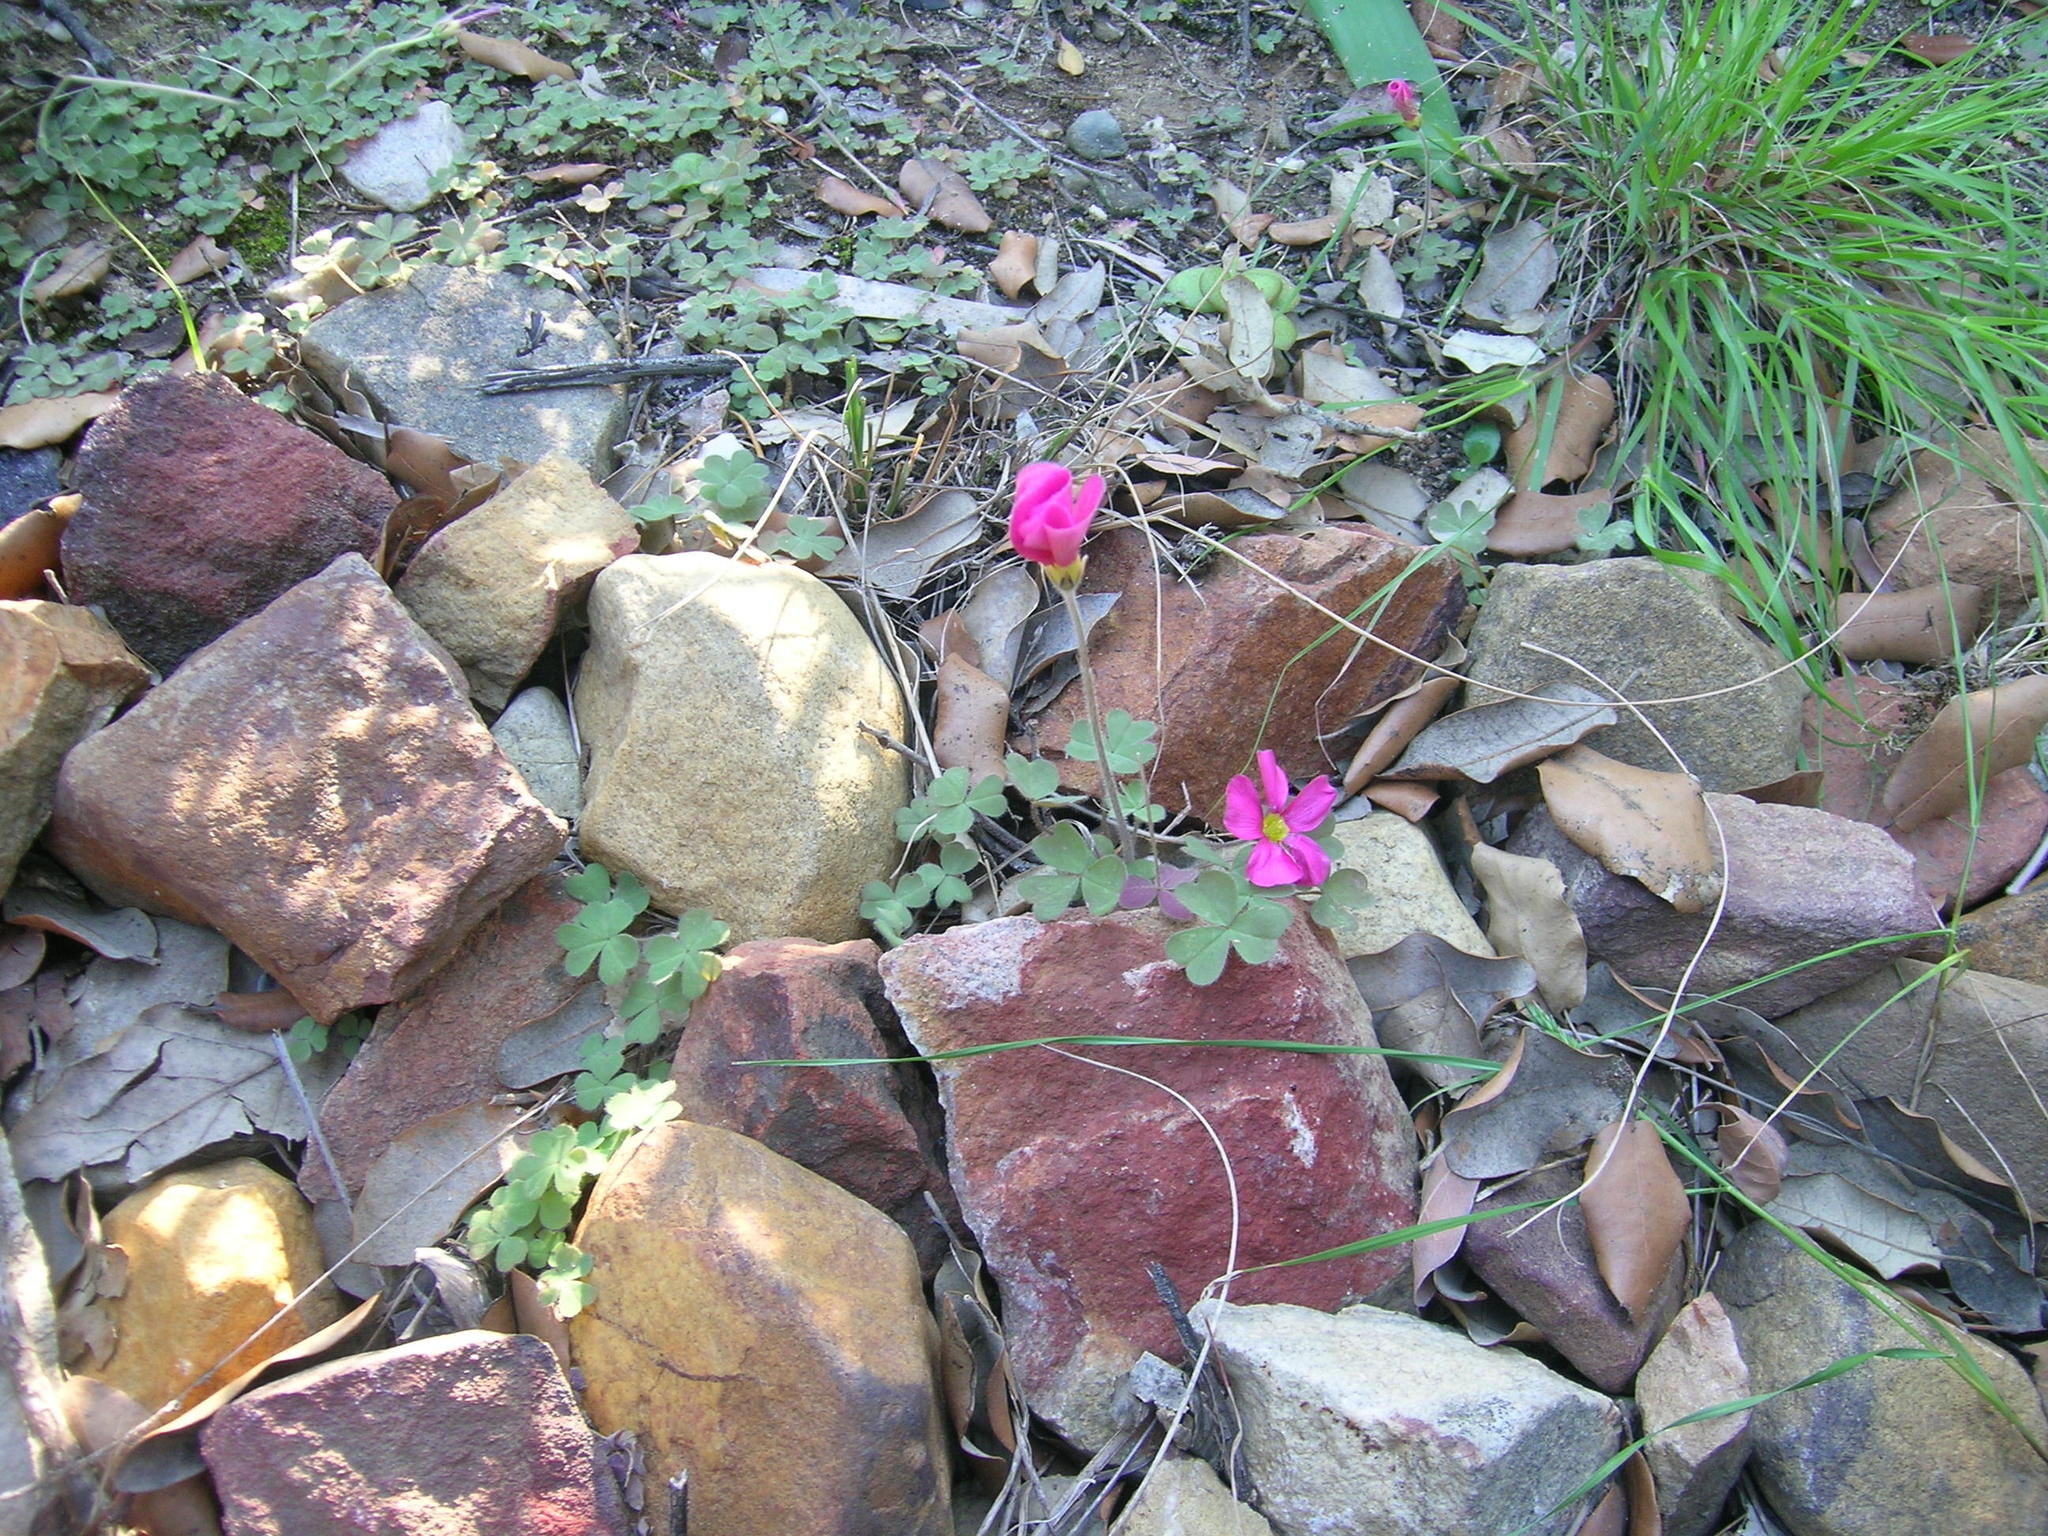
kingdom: Plantae
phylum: Tracheophyta
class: Magnoliopsida
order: Oxalidales
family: Oxalidaceae
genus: Oxalis
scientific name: Oxalis obtusa
